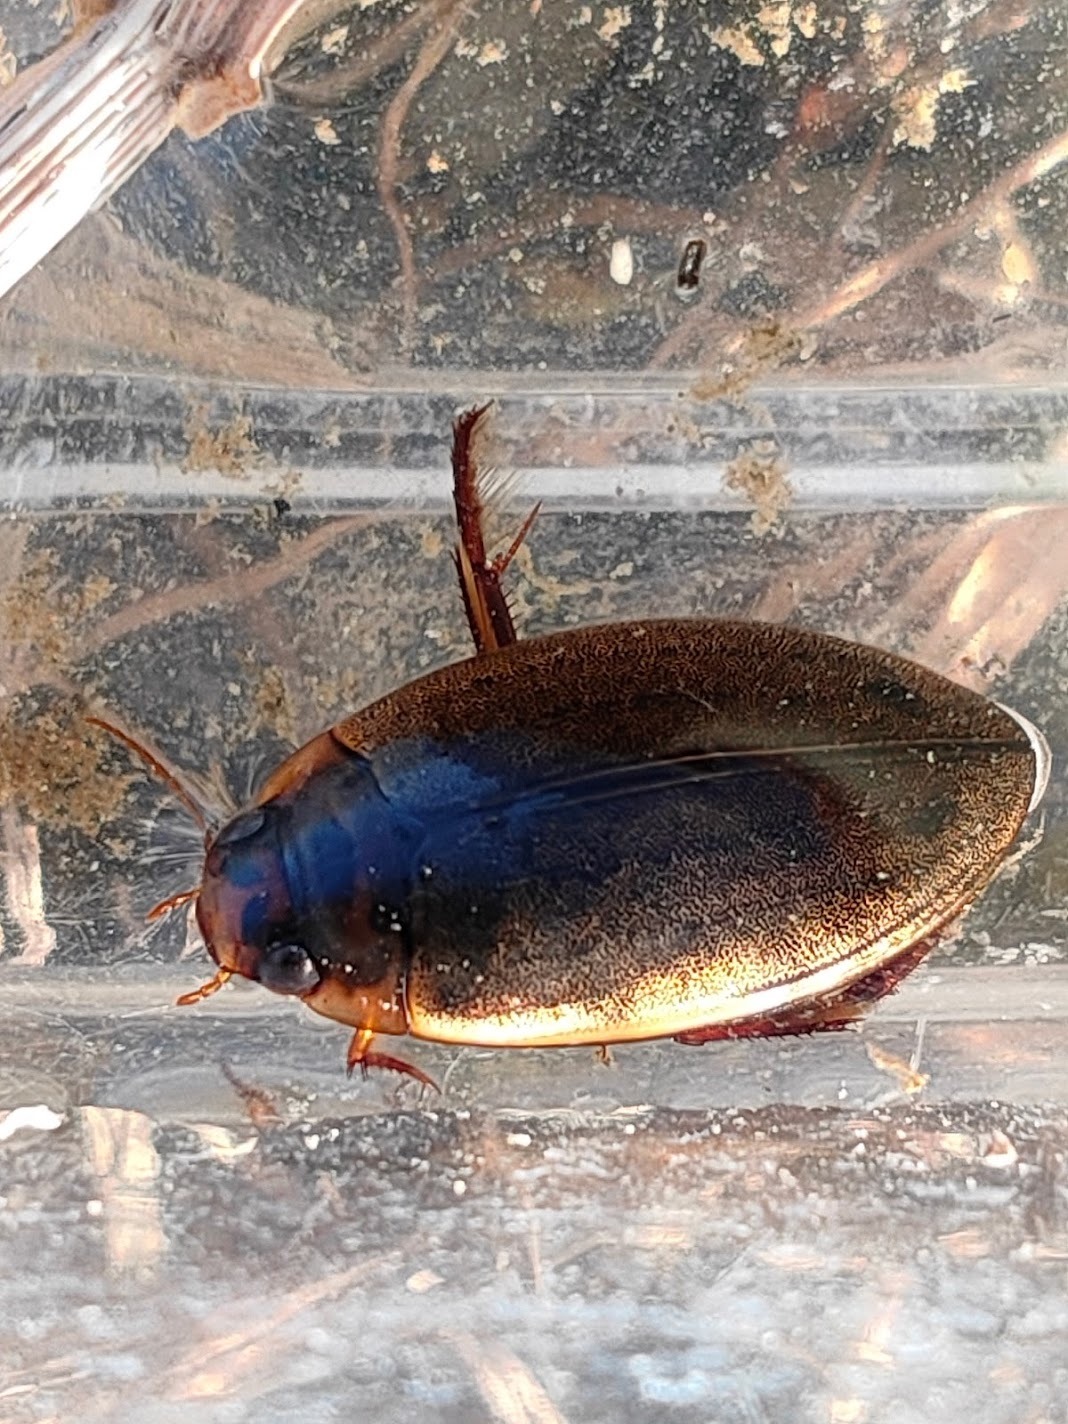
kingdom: Animalia
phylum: Arthropoda
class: Insecta
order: Coleoptera
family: Dytiscidae
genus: Rhantus
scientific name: Rhantus suturalis
